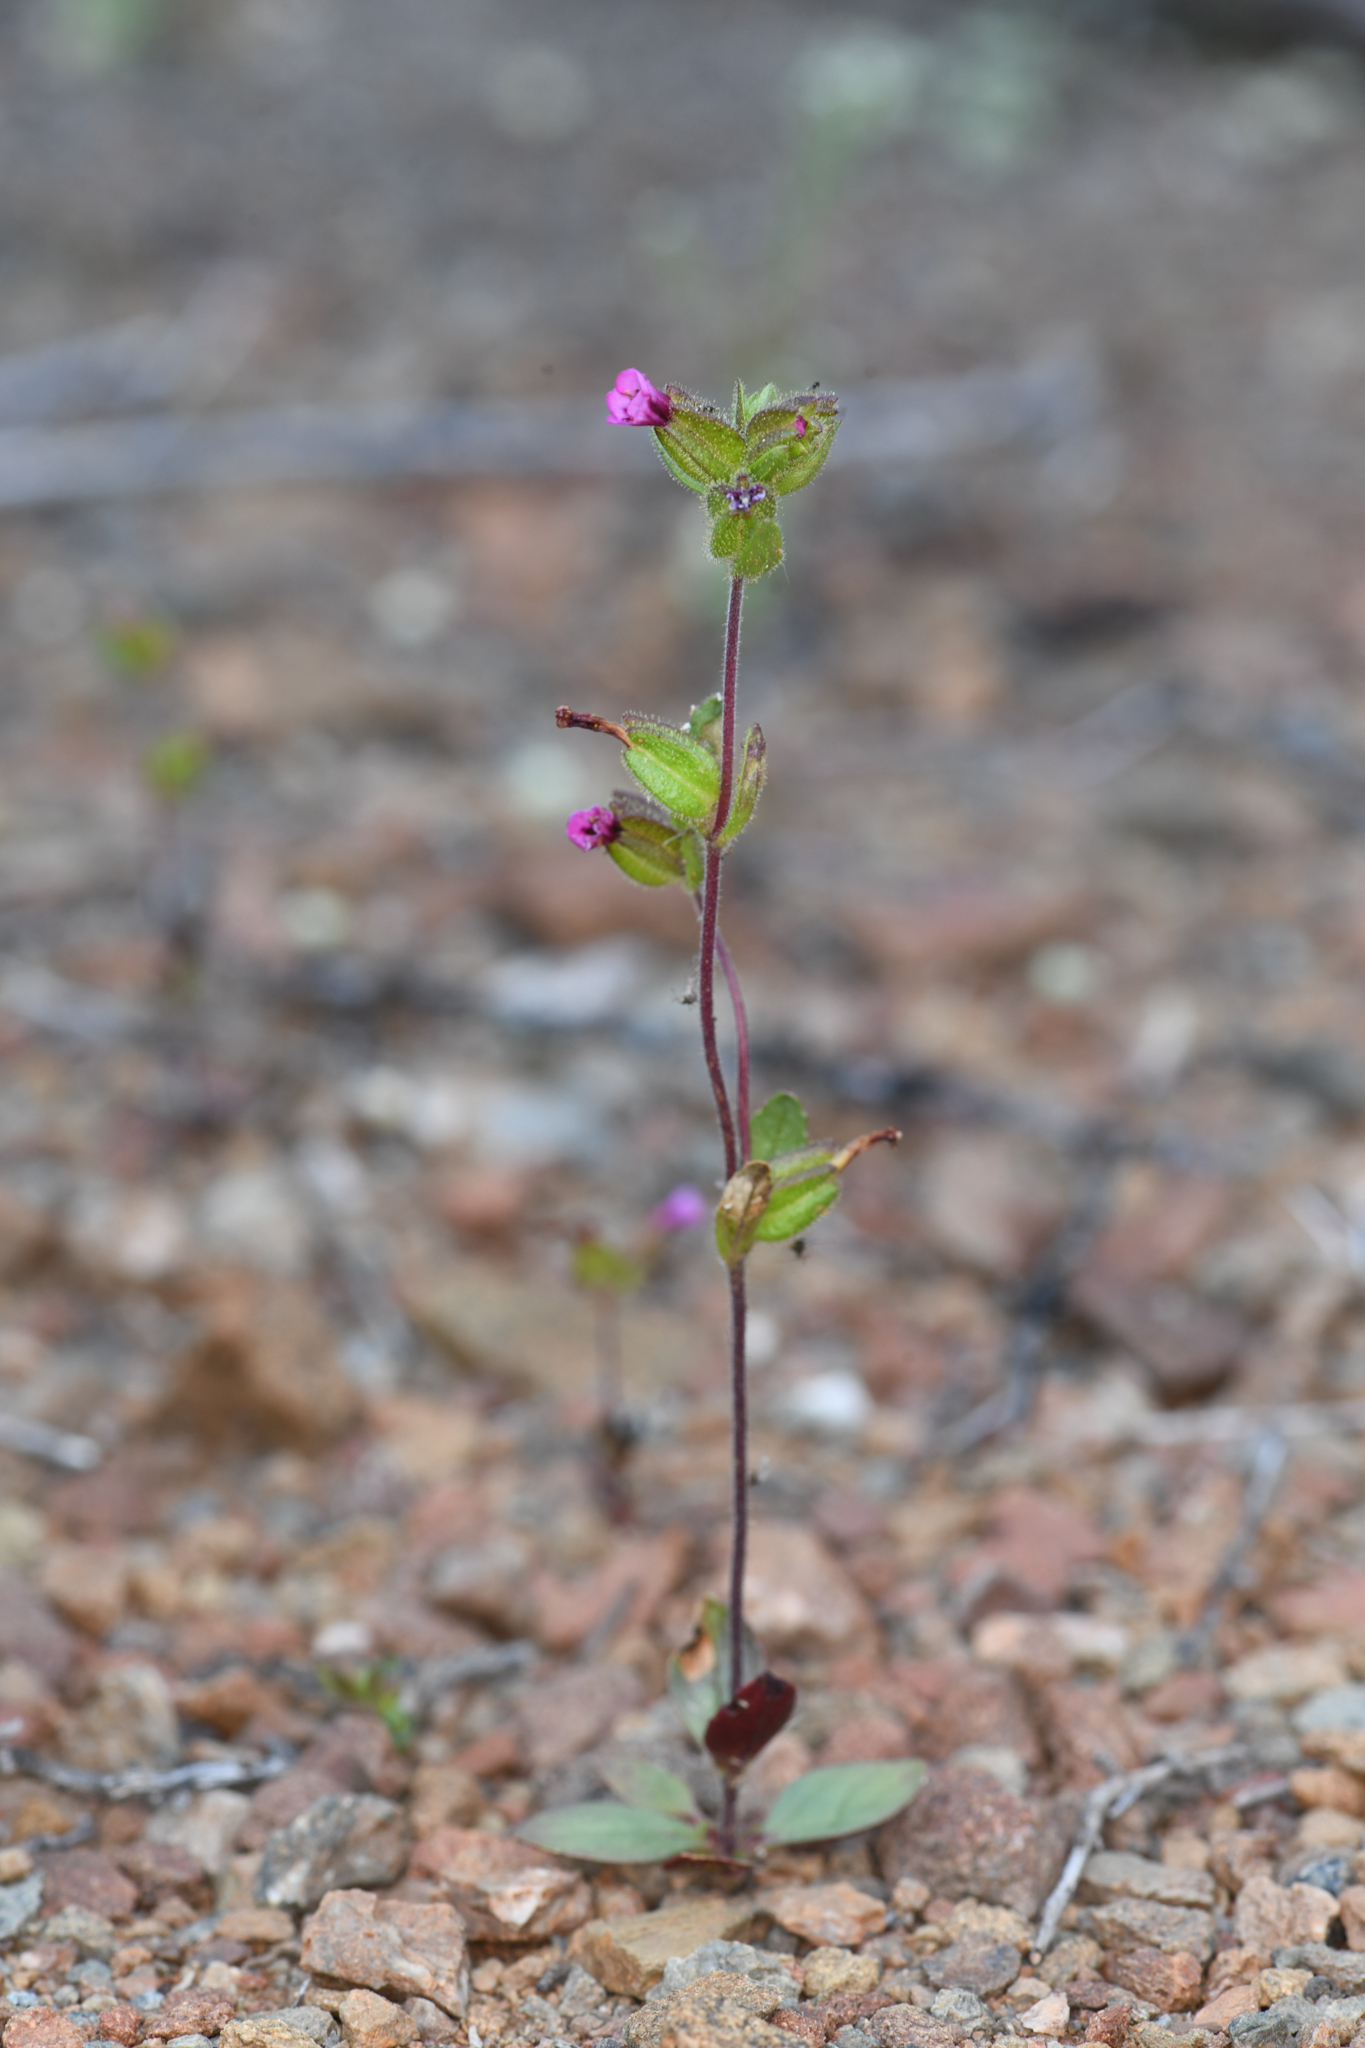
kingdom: Plantae
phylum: Tracheophyta
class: Magnoliopsida
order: Lamiales
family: Phrymaceae
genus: Diplacus
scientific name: Diplacus rattanii
